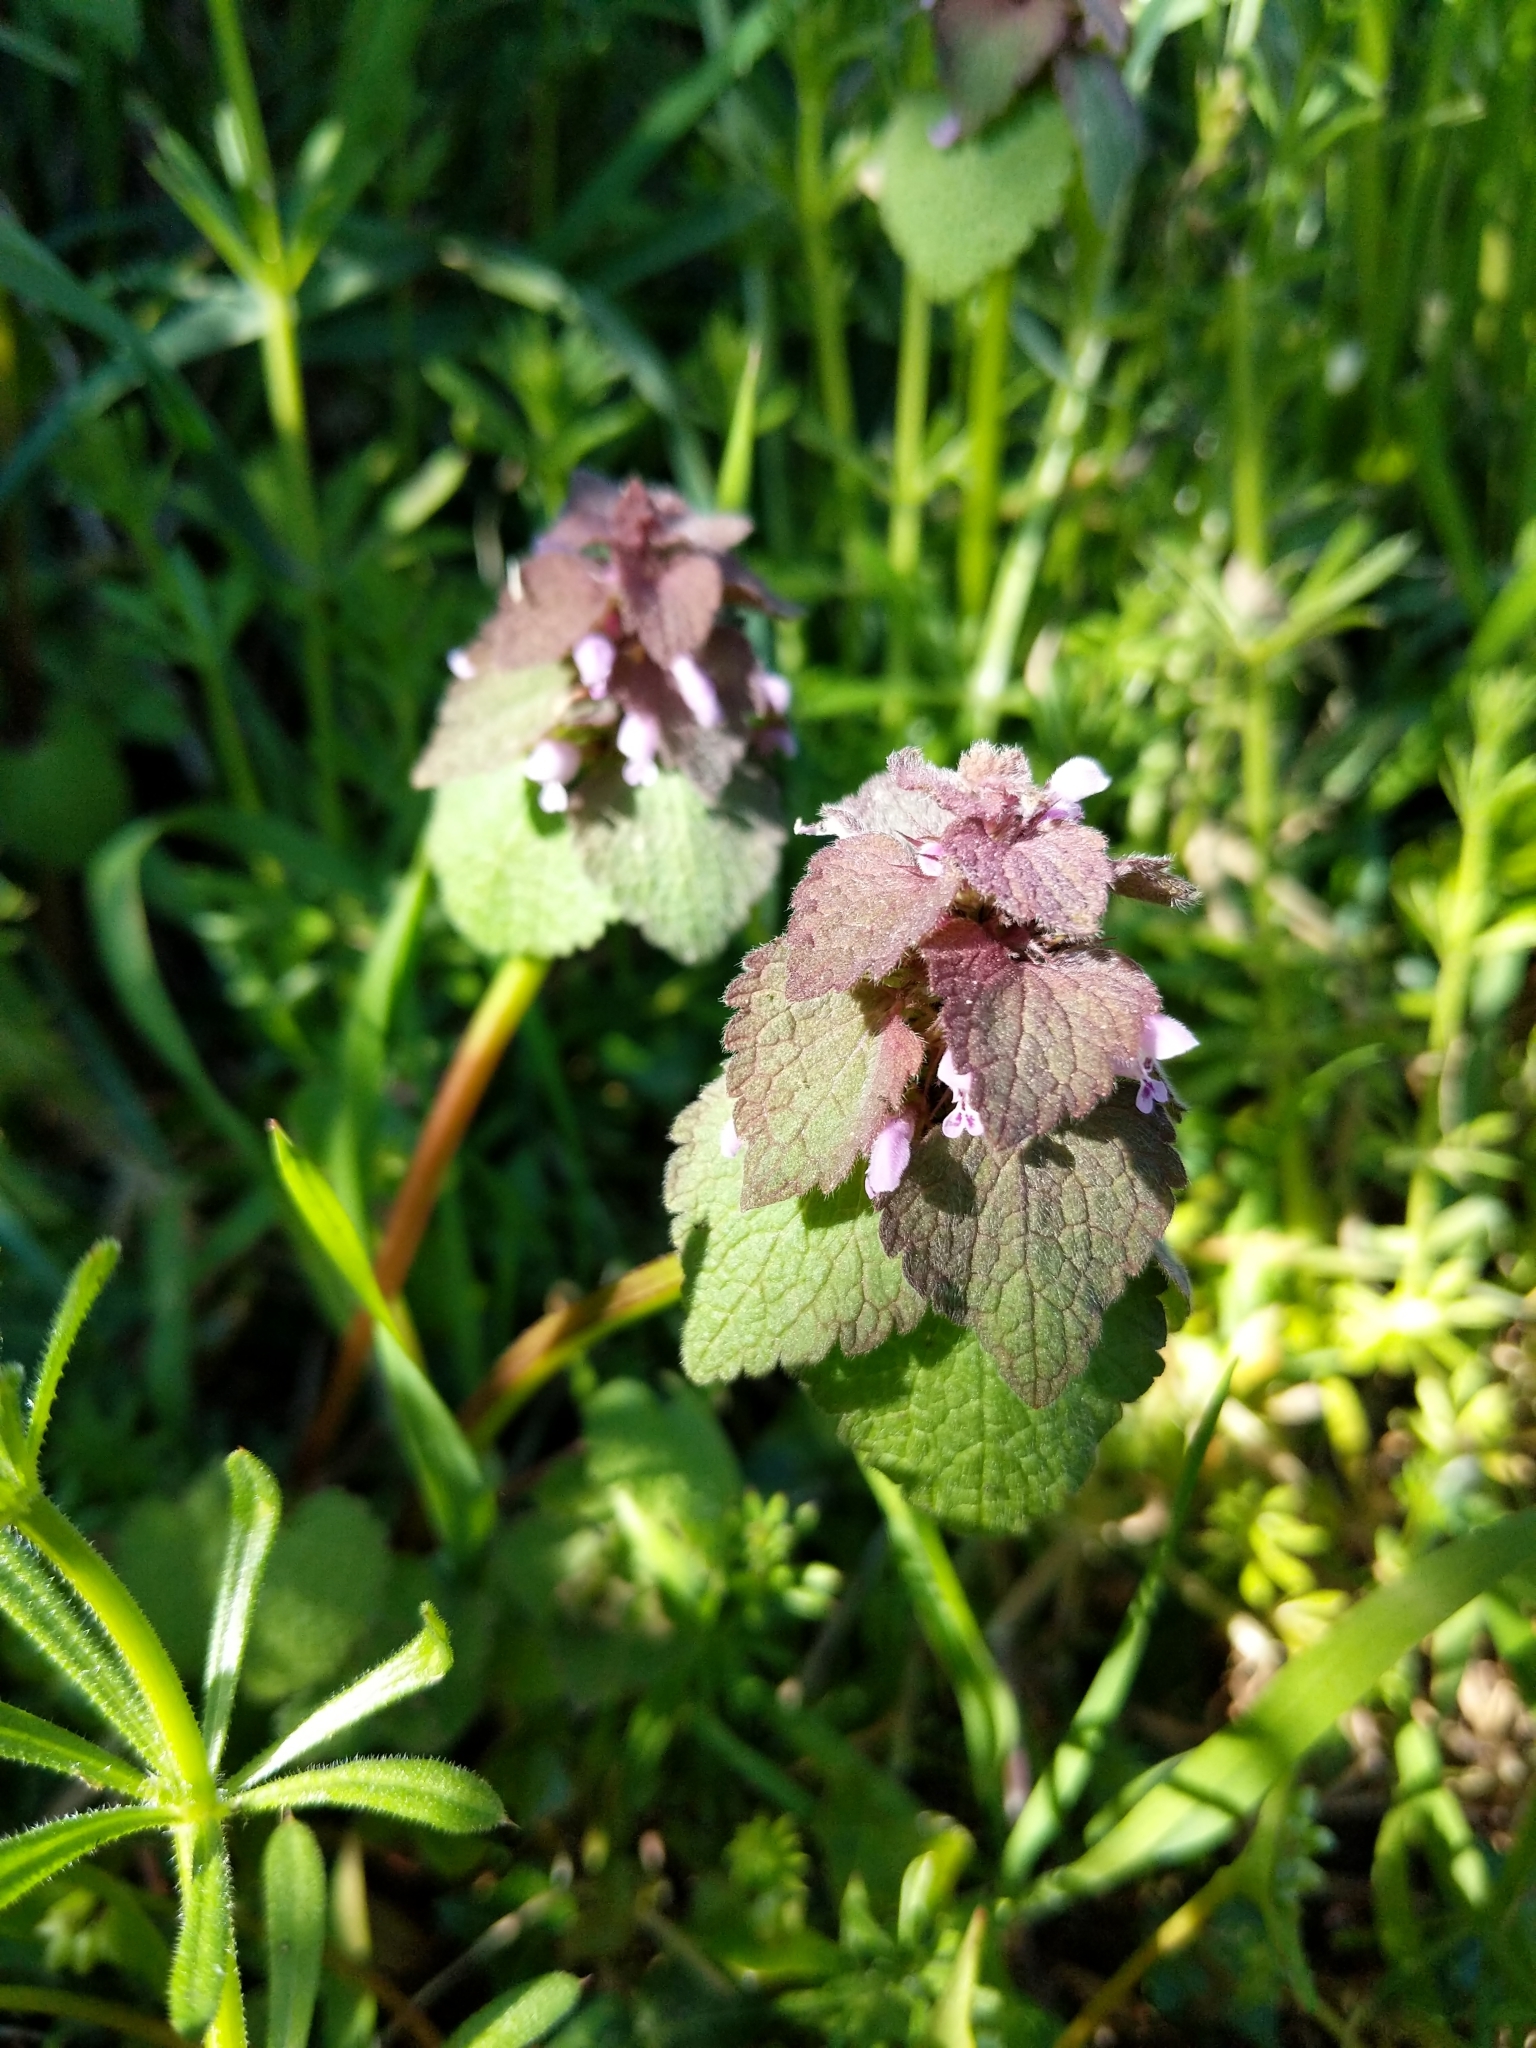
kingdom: Plantae
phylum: Tracheophyta
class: Magnoliopsida
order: Lamiales
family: Lamiaceae
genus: Lamium
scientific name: Lamium purpureum
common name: Red dead-nettle
